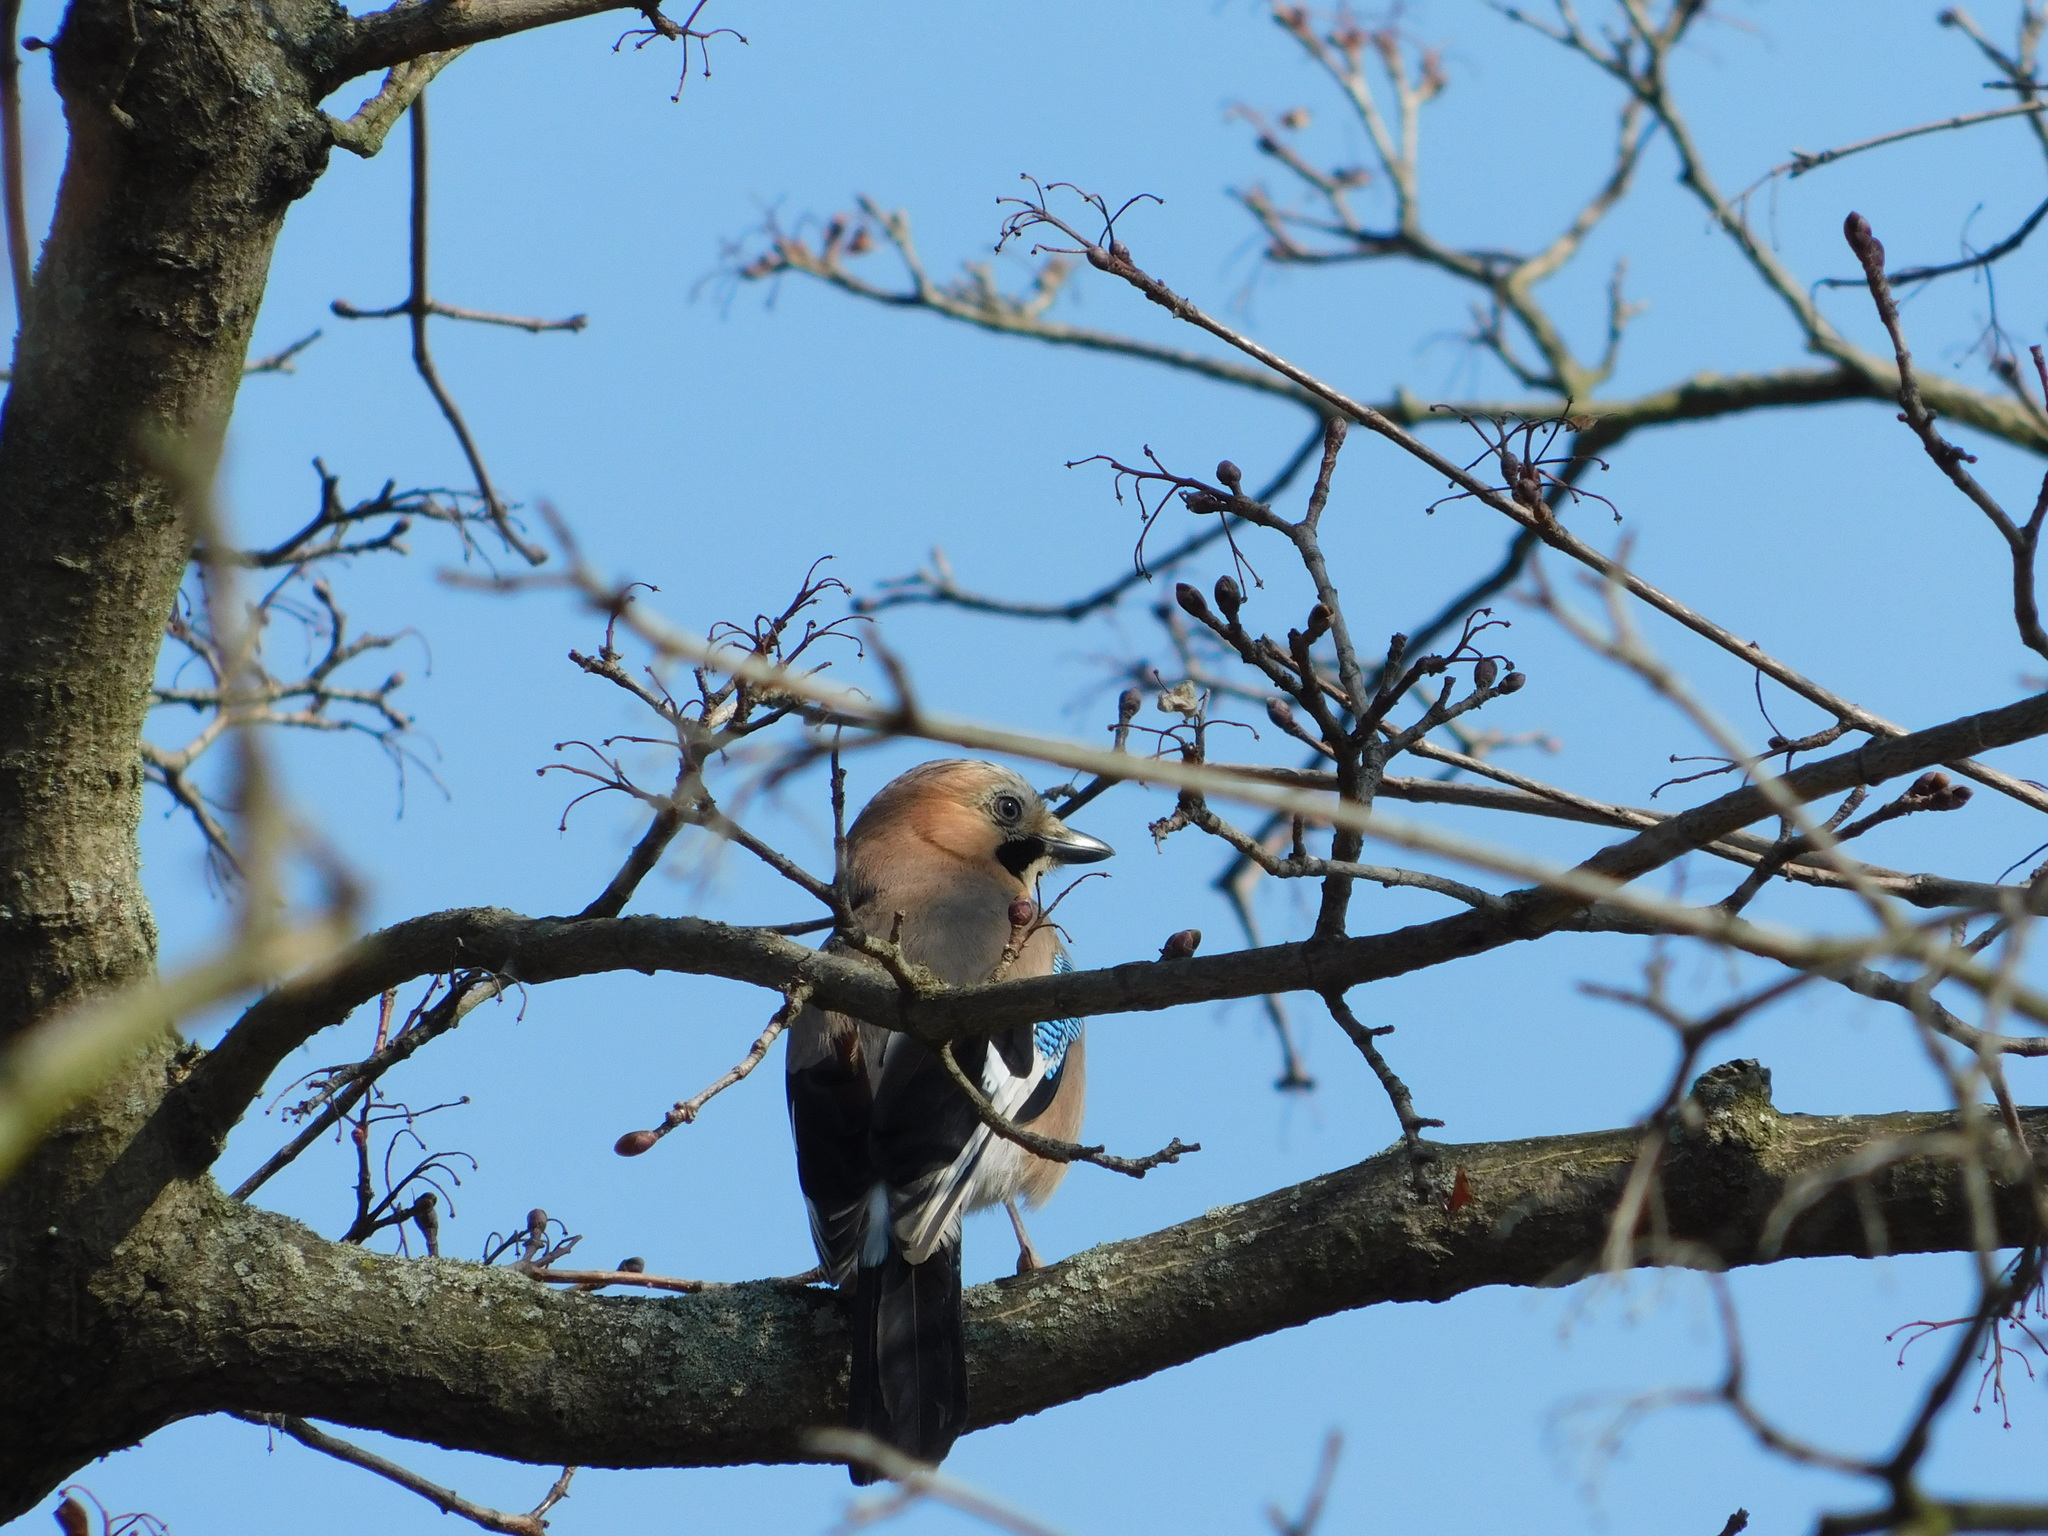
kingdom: Animalia
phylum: Chordata
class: Aves
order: Passeriformes
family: Corvidae
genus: Garrulus
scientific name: Garrulus glandarius
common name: Eurasian jay
